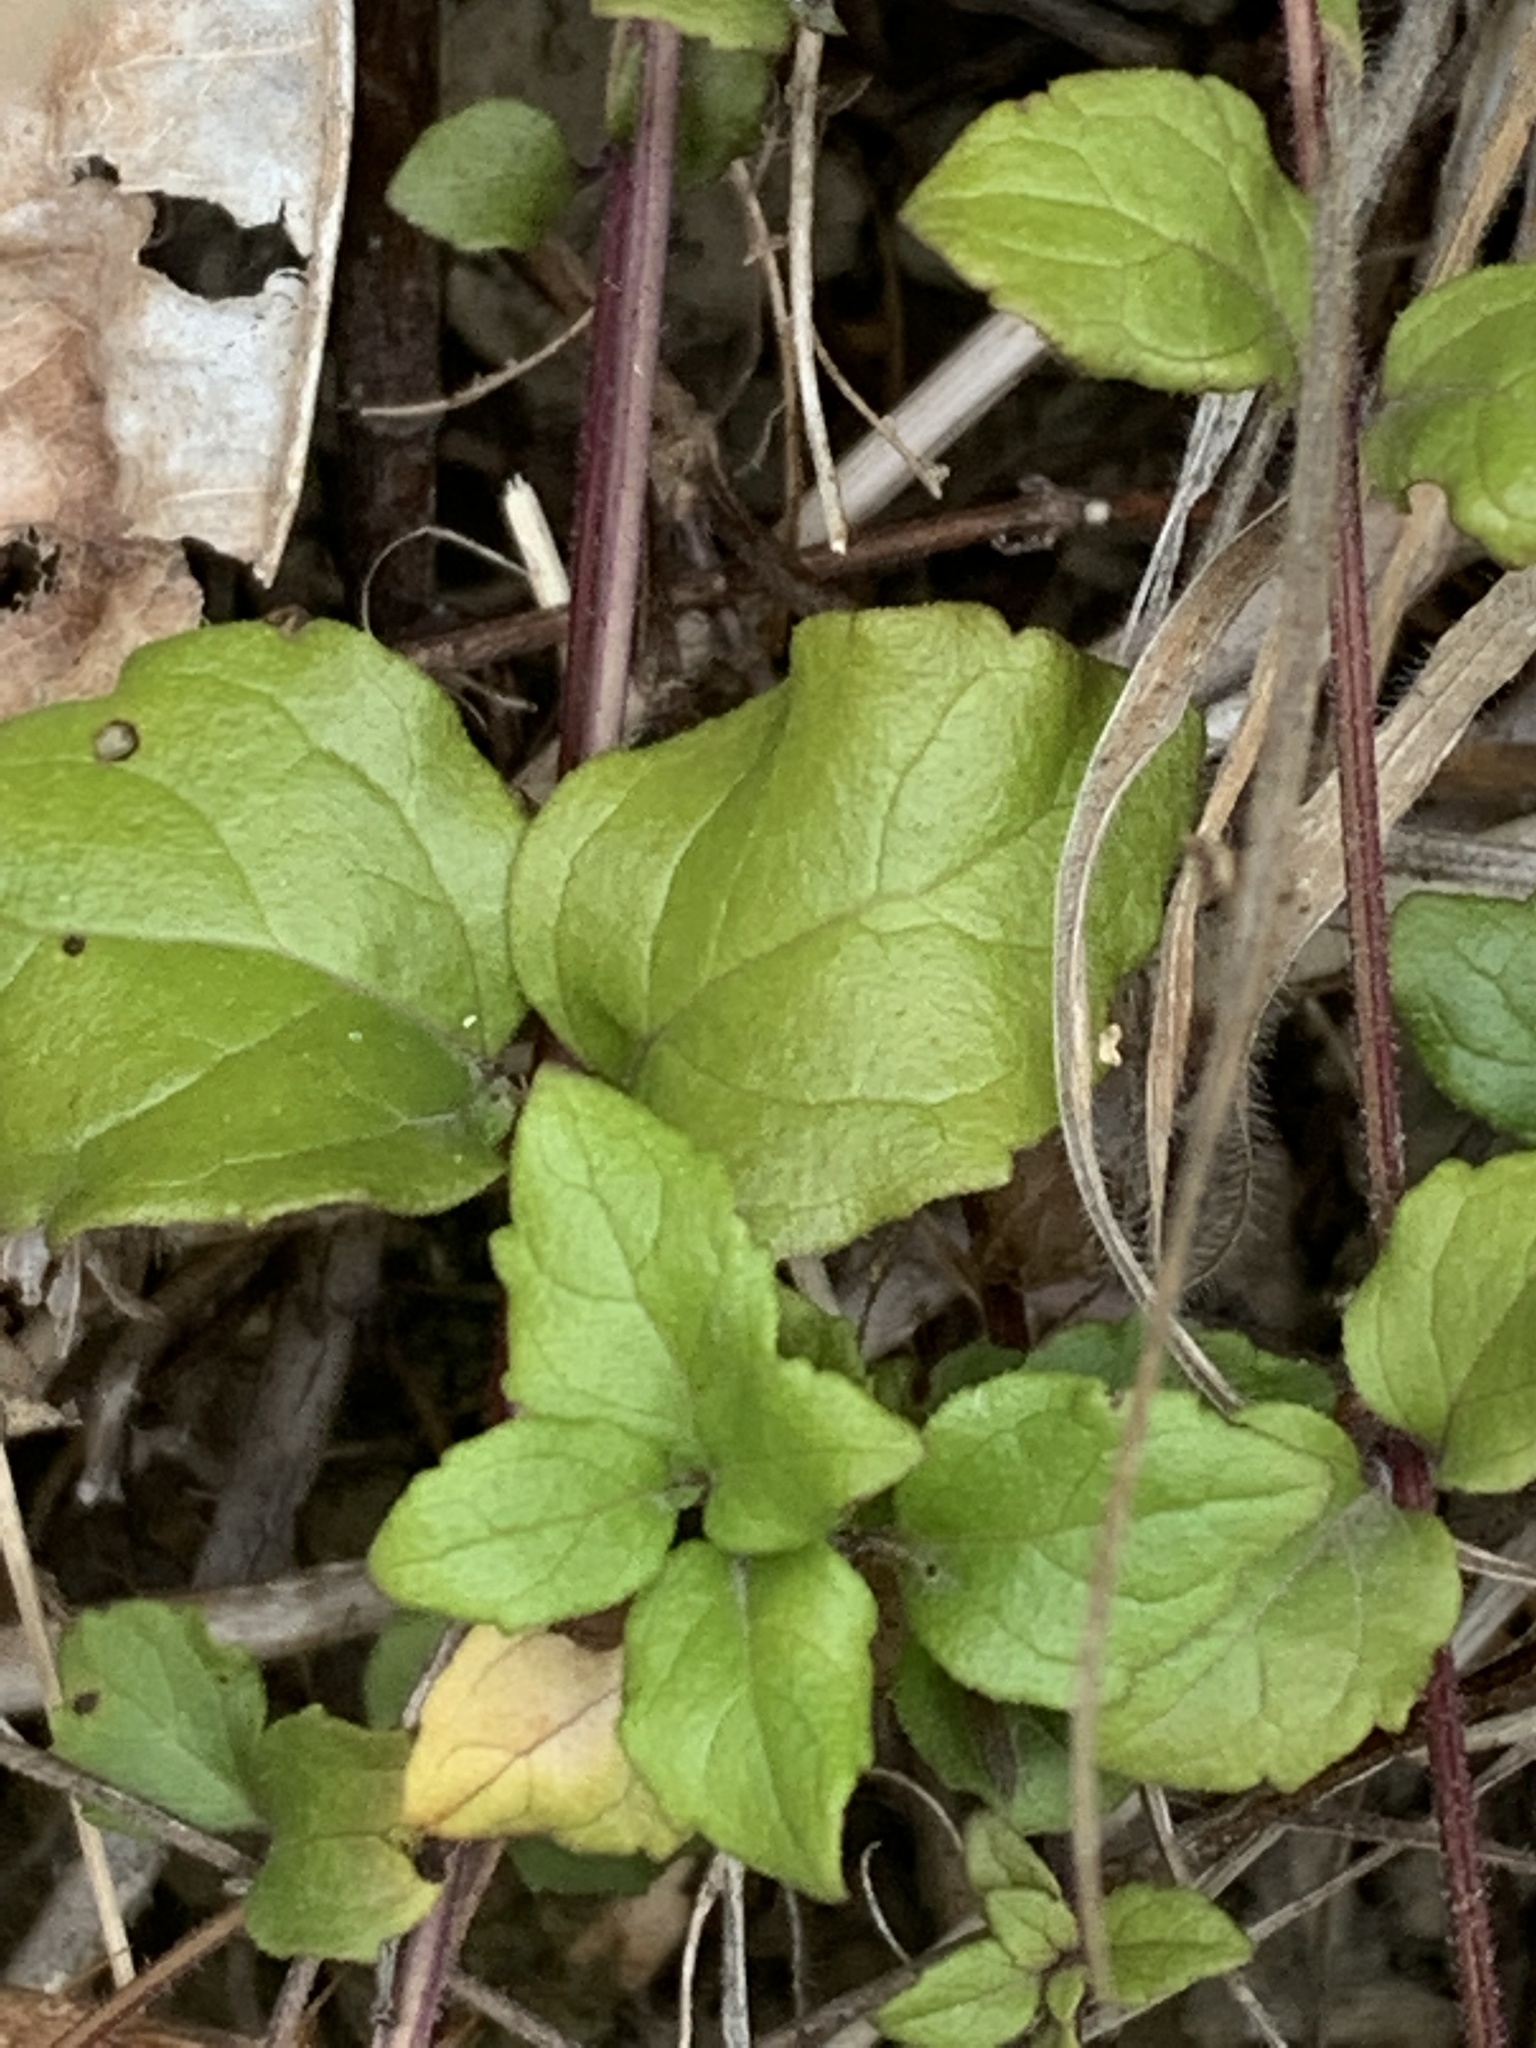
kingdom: Plantae
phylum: Tracheophyta
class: Magnoliopsida
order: Lamiales
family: Lamiaceae
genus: Micromeria
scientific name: Micromeria douglasii
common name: Yerba buena
